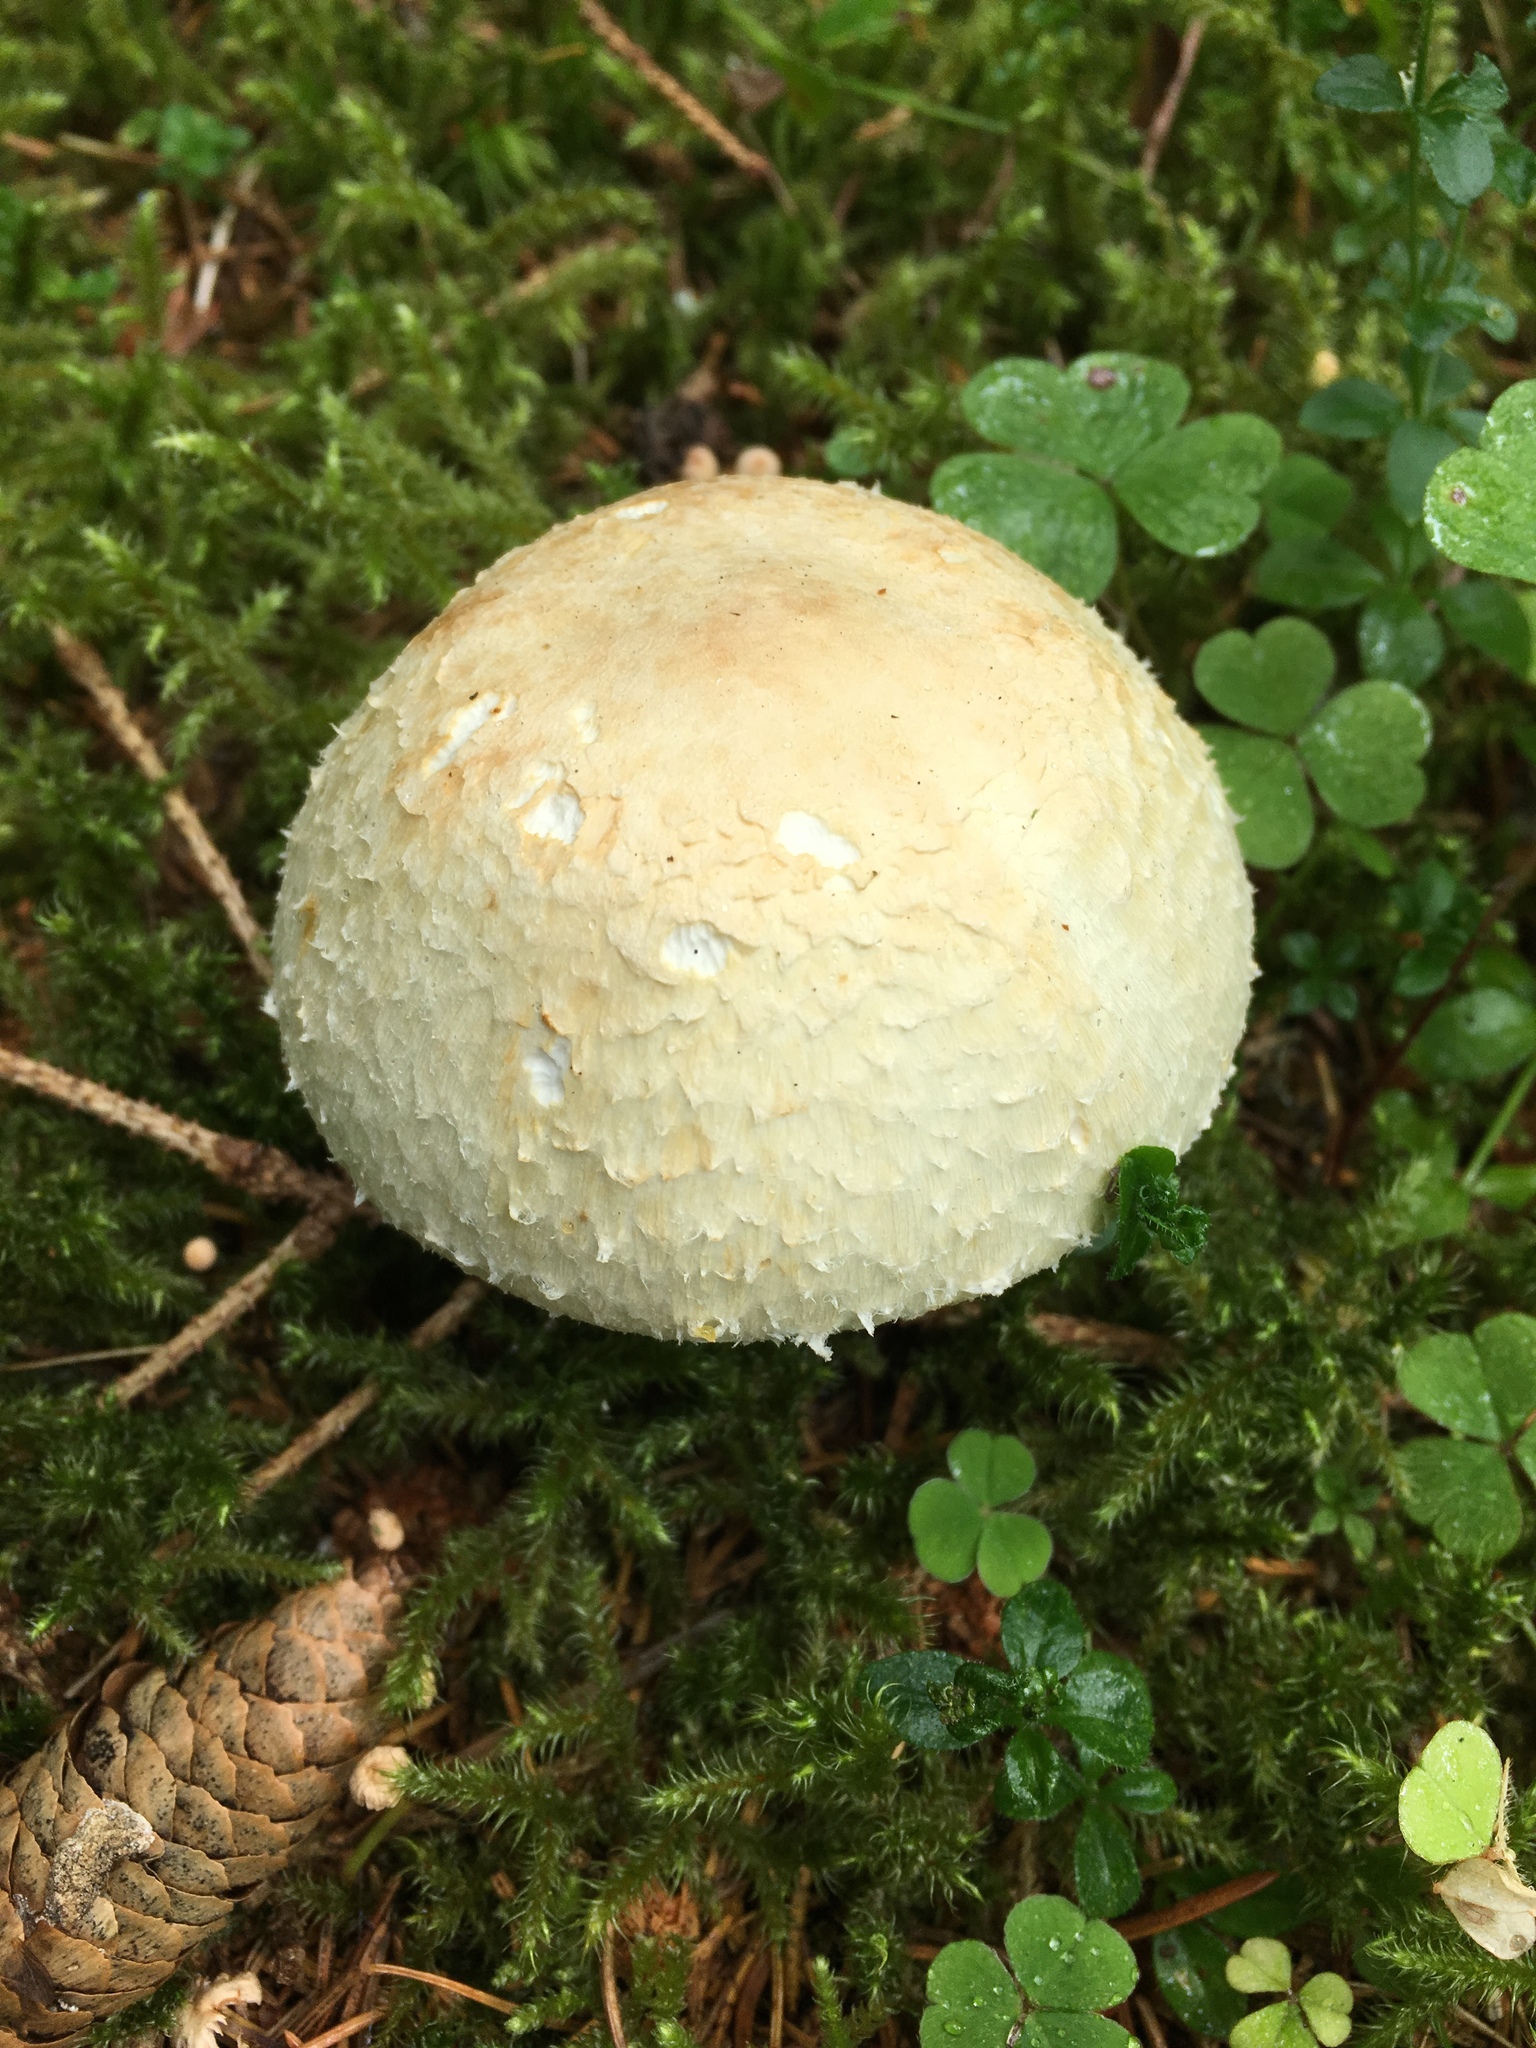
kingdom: Fungi
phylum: Basidiomycota
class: Agaricomycetes
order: Agaricales
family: Agaricaceae
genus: Agaricus
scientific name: Agaricus sylvicola
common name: Wood mushroom
